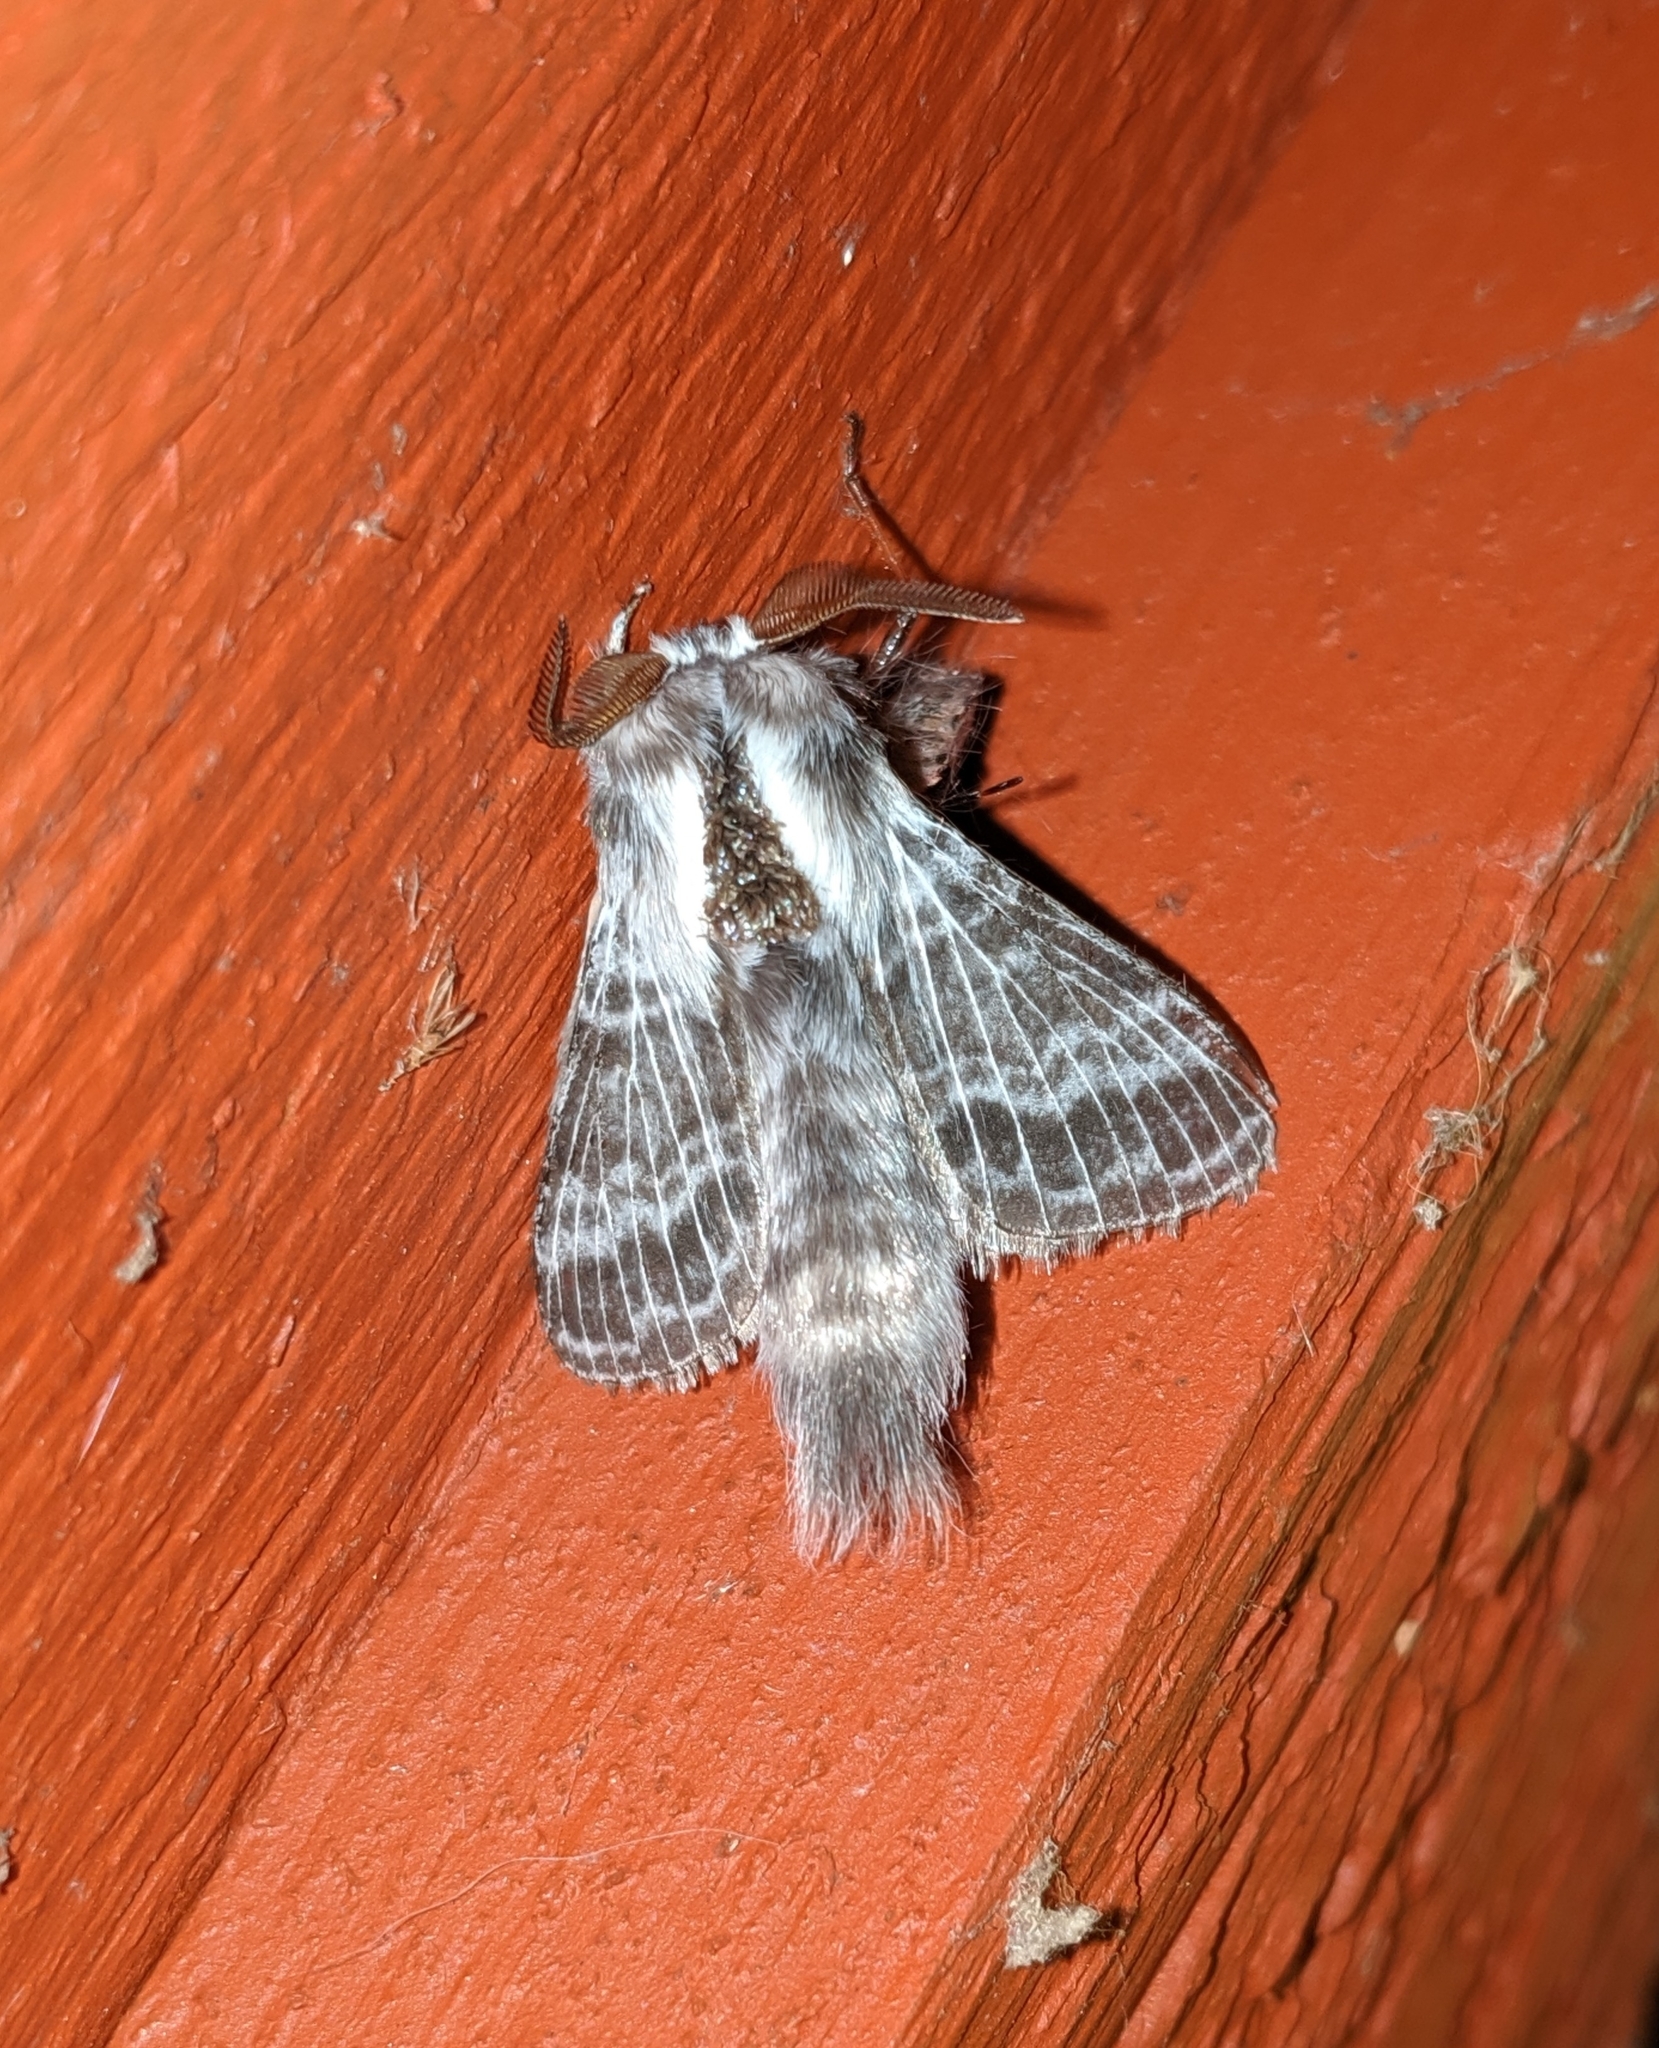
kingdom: Animalia
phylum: Arthropoda
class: Insecta
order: Lepidoptera
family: Lasiocampidae
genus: Tolype
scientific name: Tolype dayi
